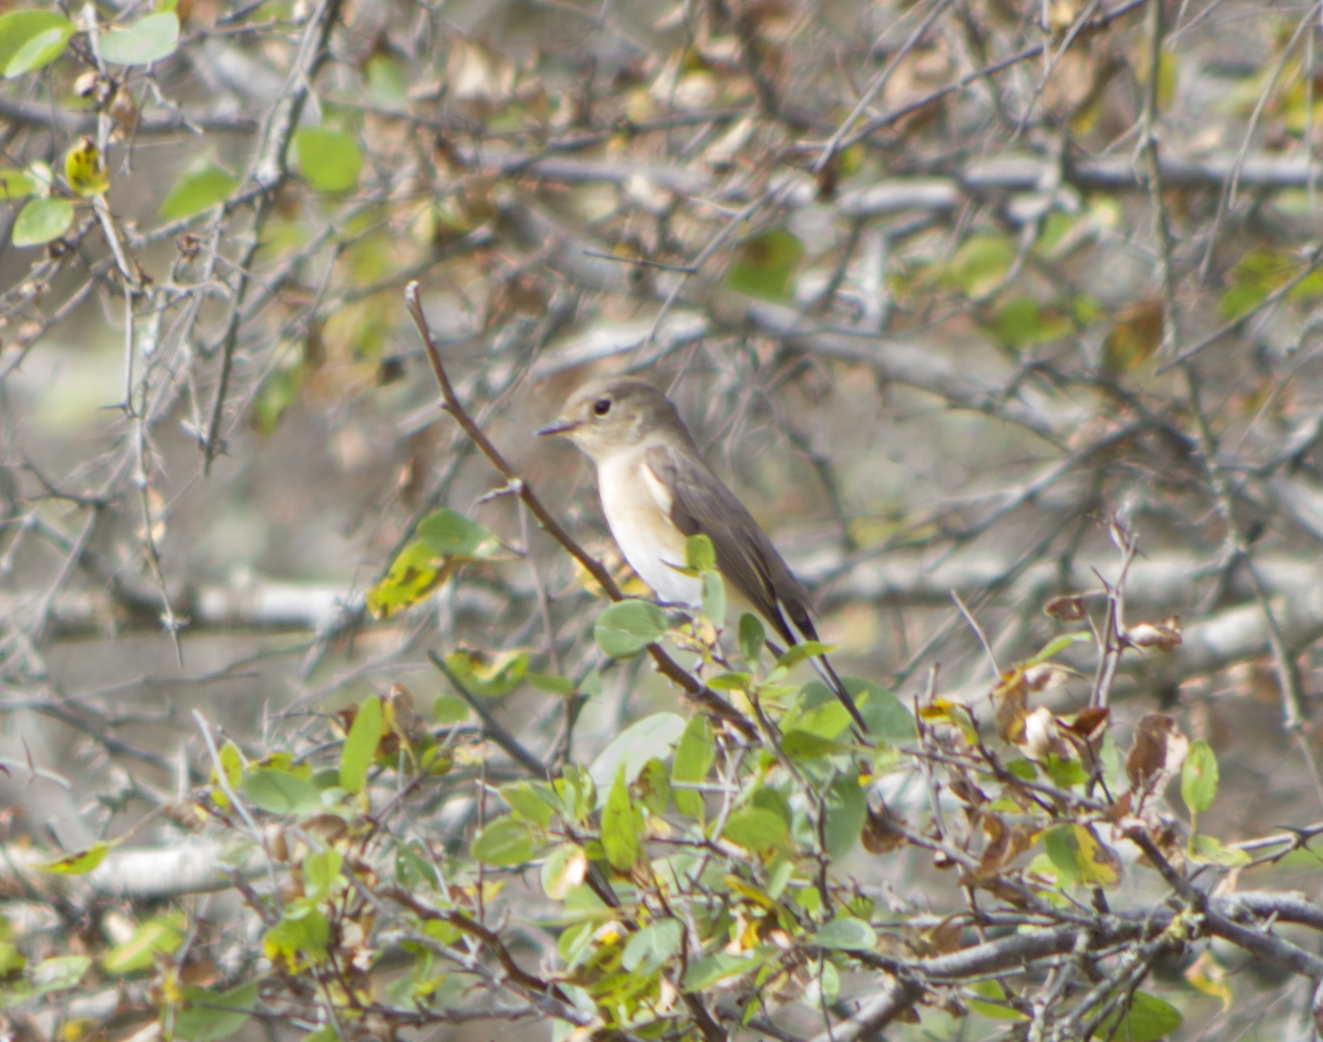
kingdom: Animalia
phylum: Chordata
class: Aves
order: Passeriformes
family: Muscicapidae
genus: Ficedula
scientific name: Ficedula parva
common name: Red-breasted flycatcher
